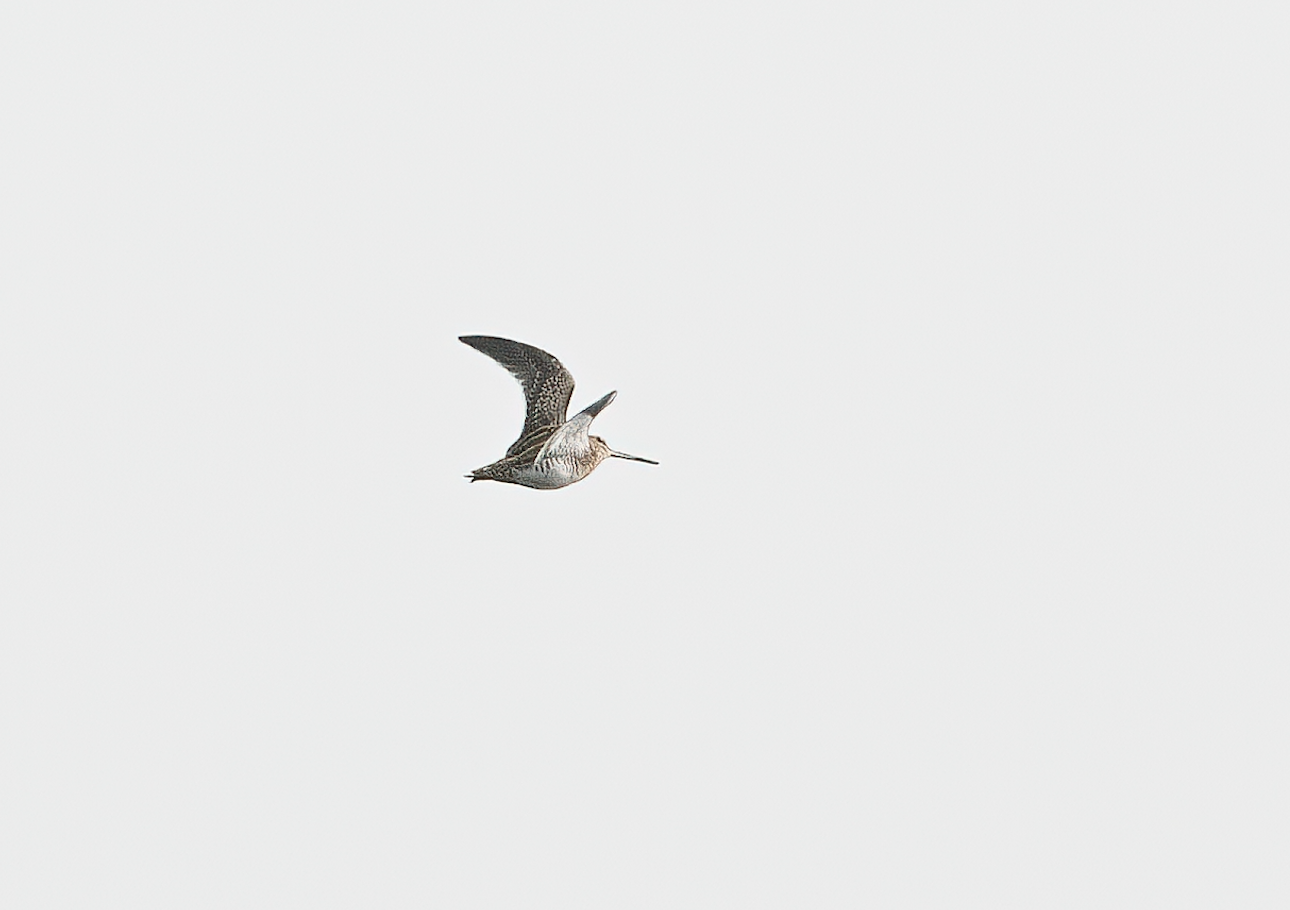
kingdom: Animalia
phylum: Chordata
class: Aves
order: Charadriiformes
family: Scolopacidae
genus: Gallinago
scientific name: Gallinago gallinago
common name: Common snipe
